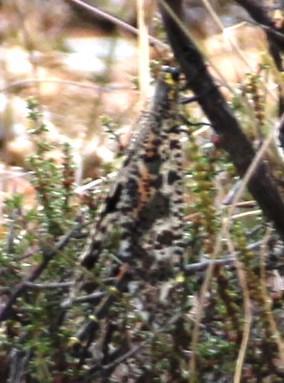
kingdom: Animalia
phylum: Arthropoda
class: Insecta
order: Neuroptera
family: Myrmeleontidae
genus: Palpares
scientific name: Palpares speciosus
